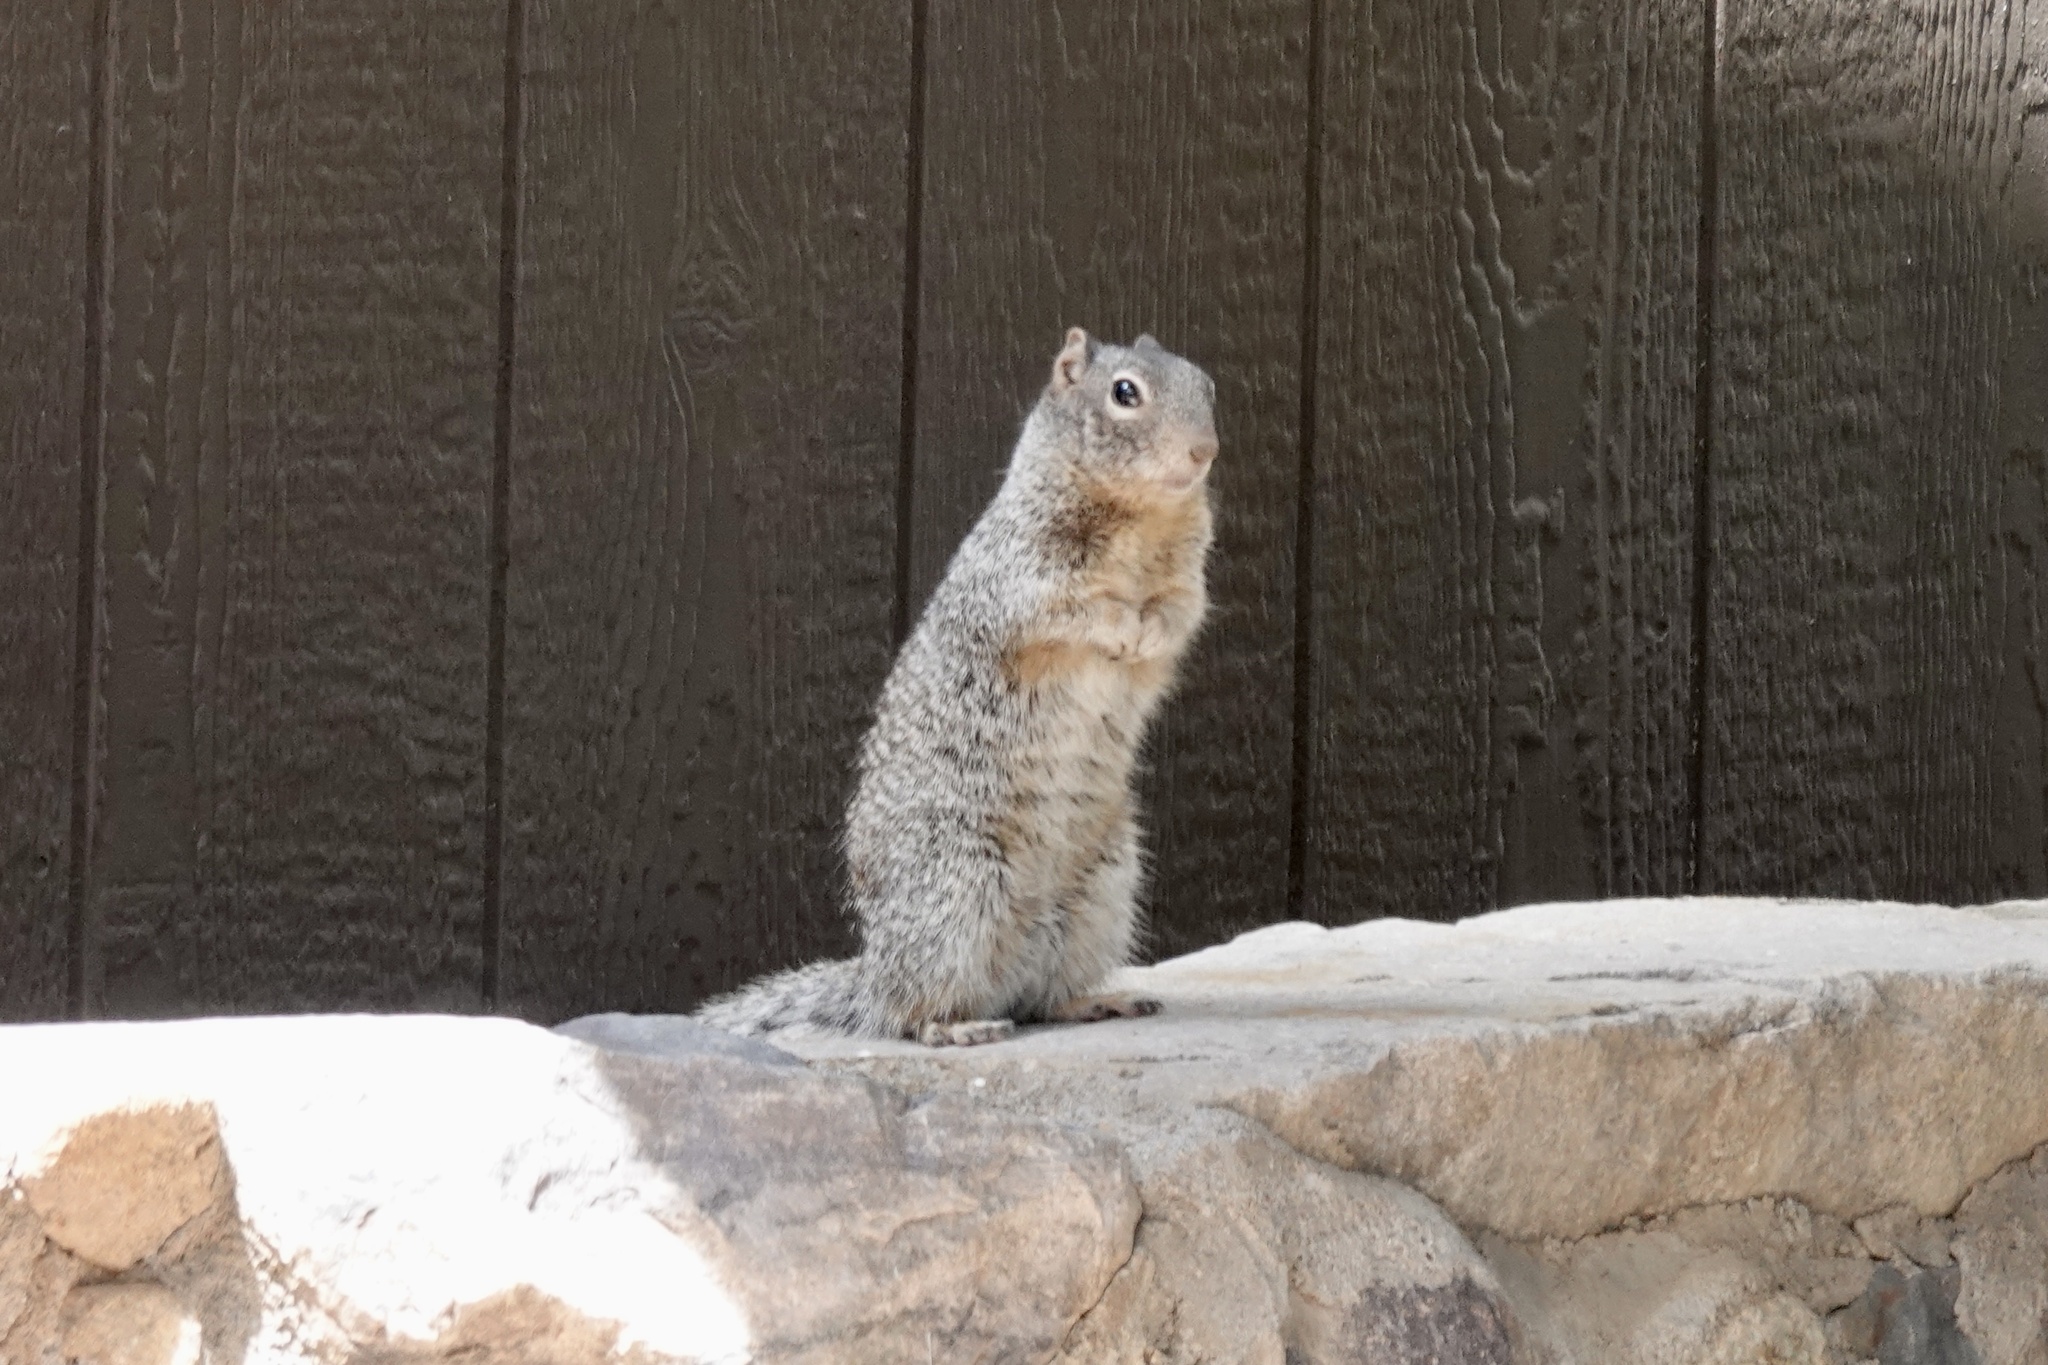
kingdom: Animalia
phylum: Chordata
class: Mammalia
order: Rodentia
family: Sciuridae
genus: Otospermophilus
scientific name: Otospermophilus variegatus
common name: Rock squirrel
